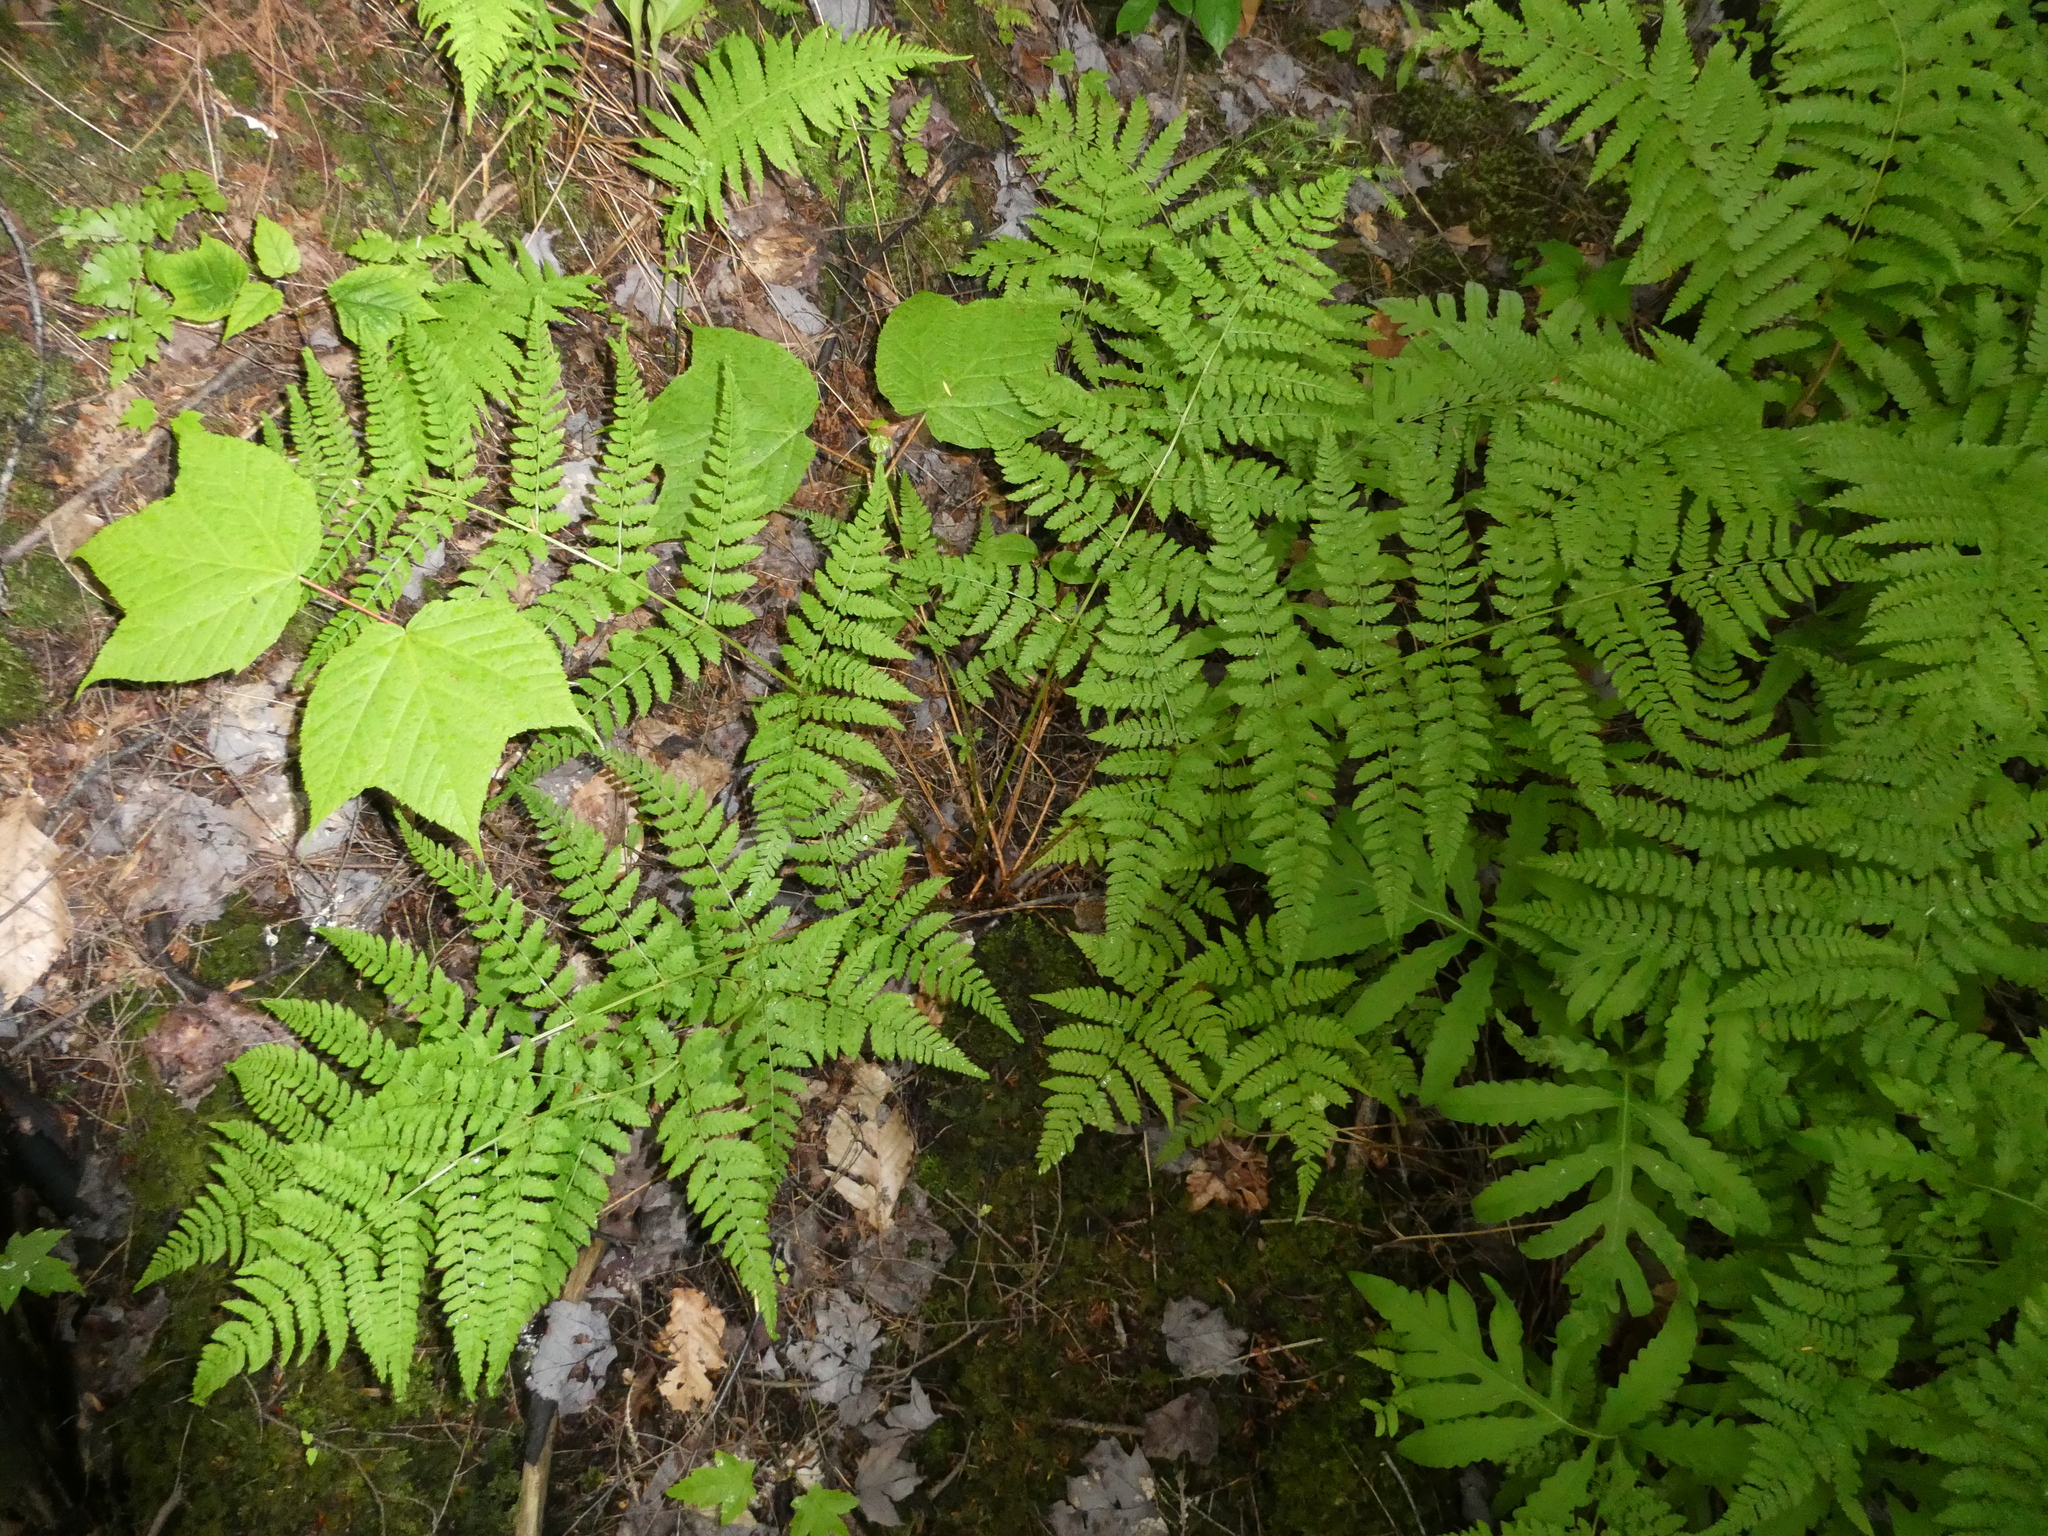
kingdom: Plantae
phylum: Tracheophyta
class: Polypodiopsida
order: Polypodiales
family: Dryopteridaceae
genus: Dryopteris
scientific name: Dryopteris intermedia
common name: Evergreen wood fern
